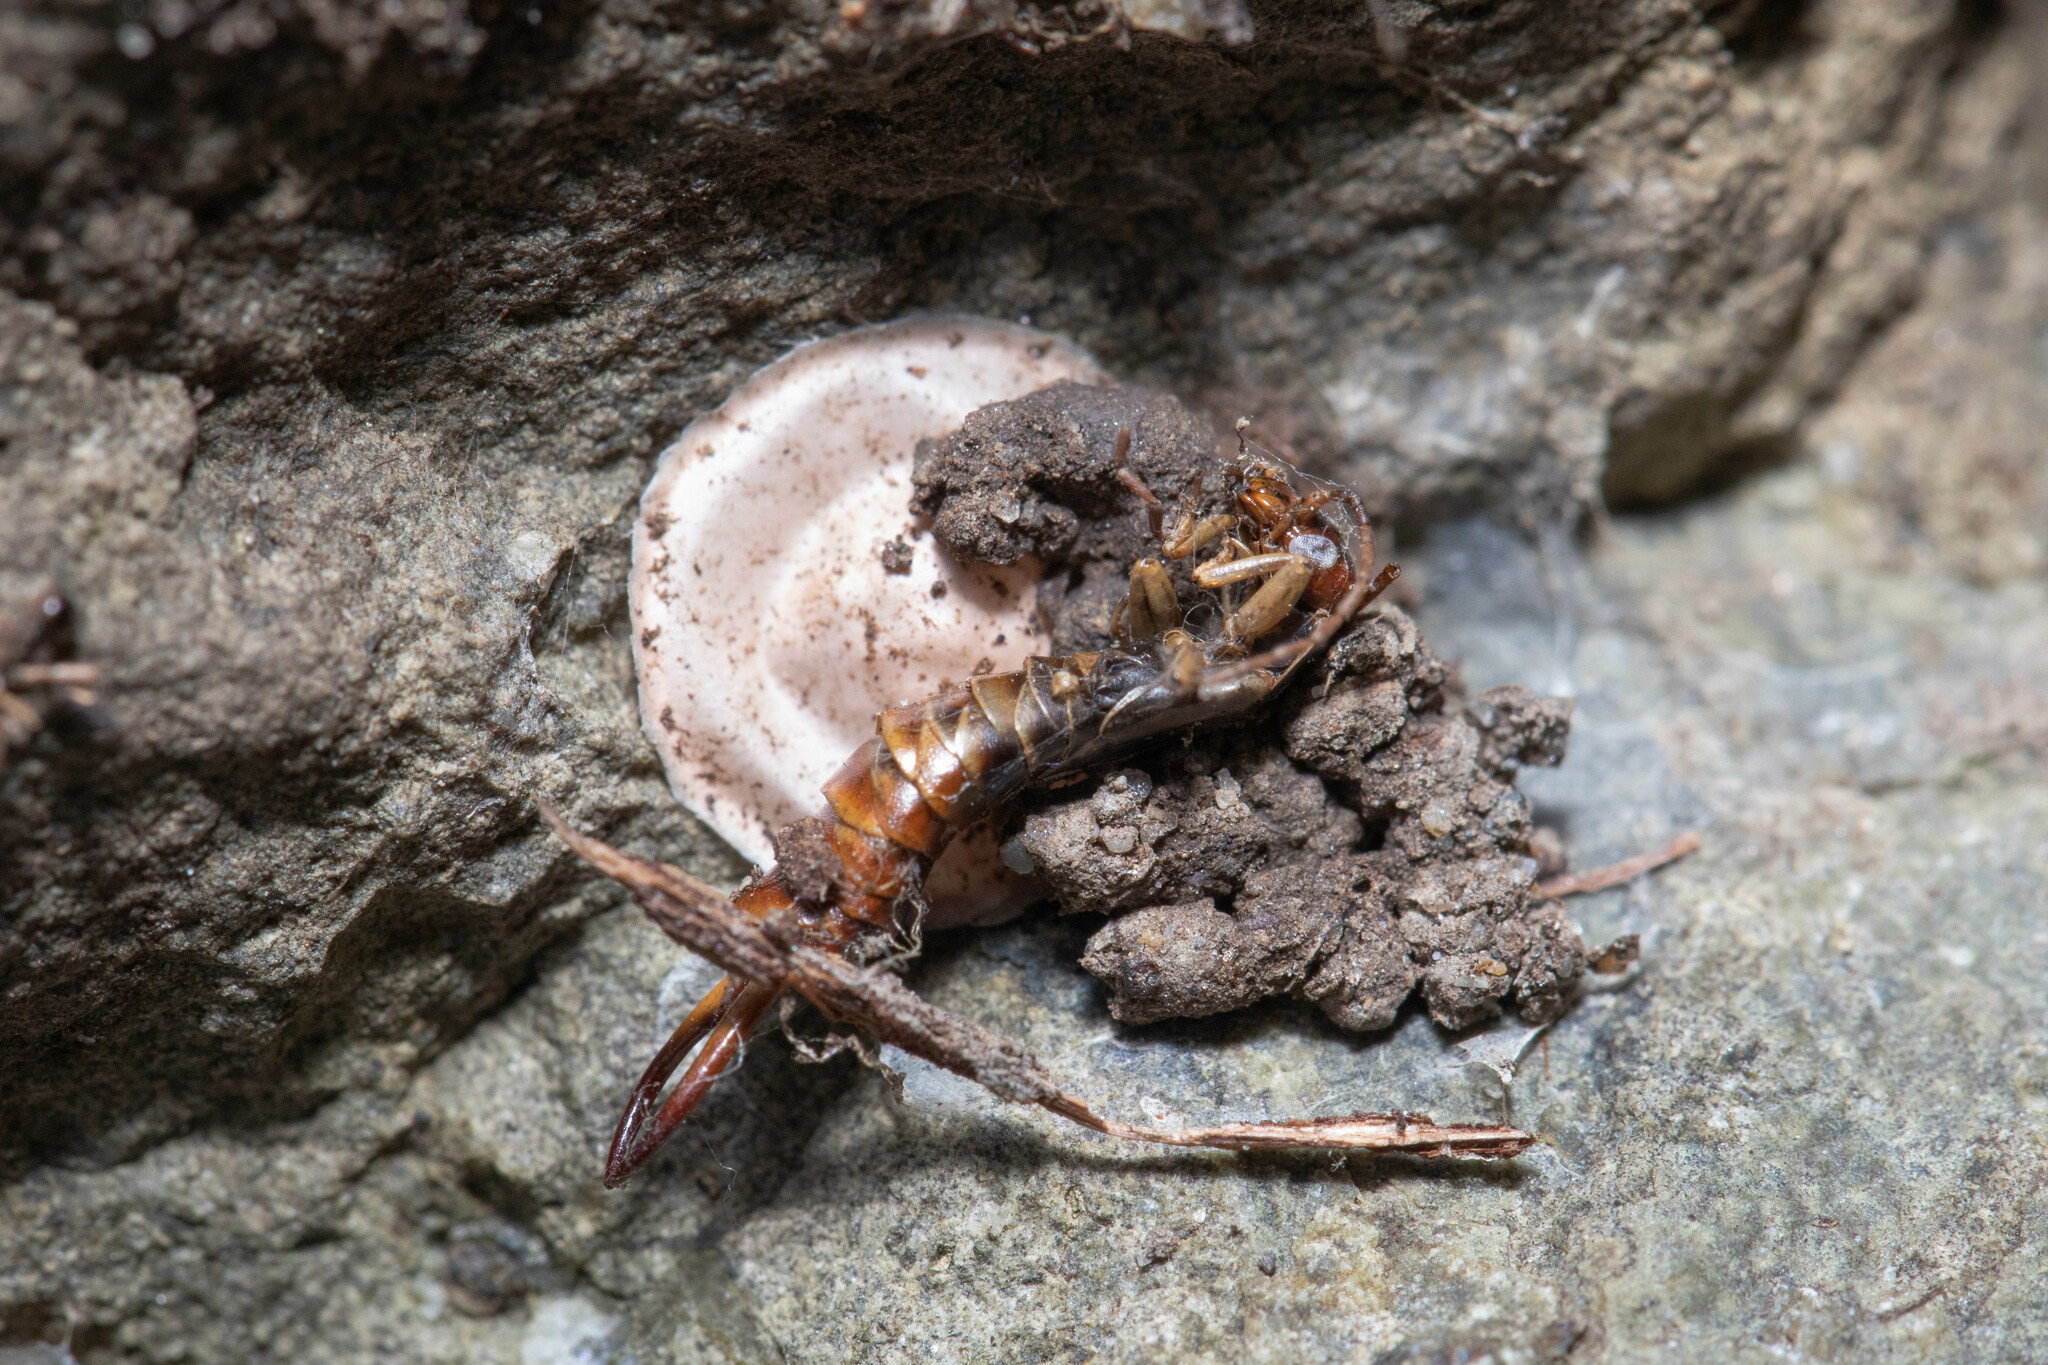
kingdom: Animalia
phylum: Arthropoda
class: Insecta
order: Dermaptera
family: Forficulidae
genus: Forficula
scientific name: Forficula dentata
